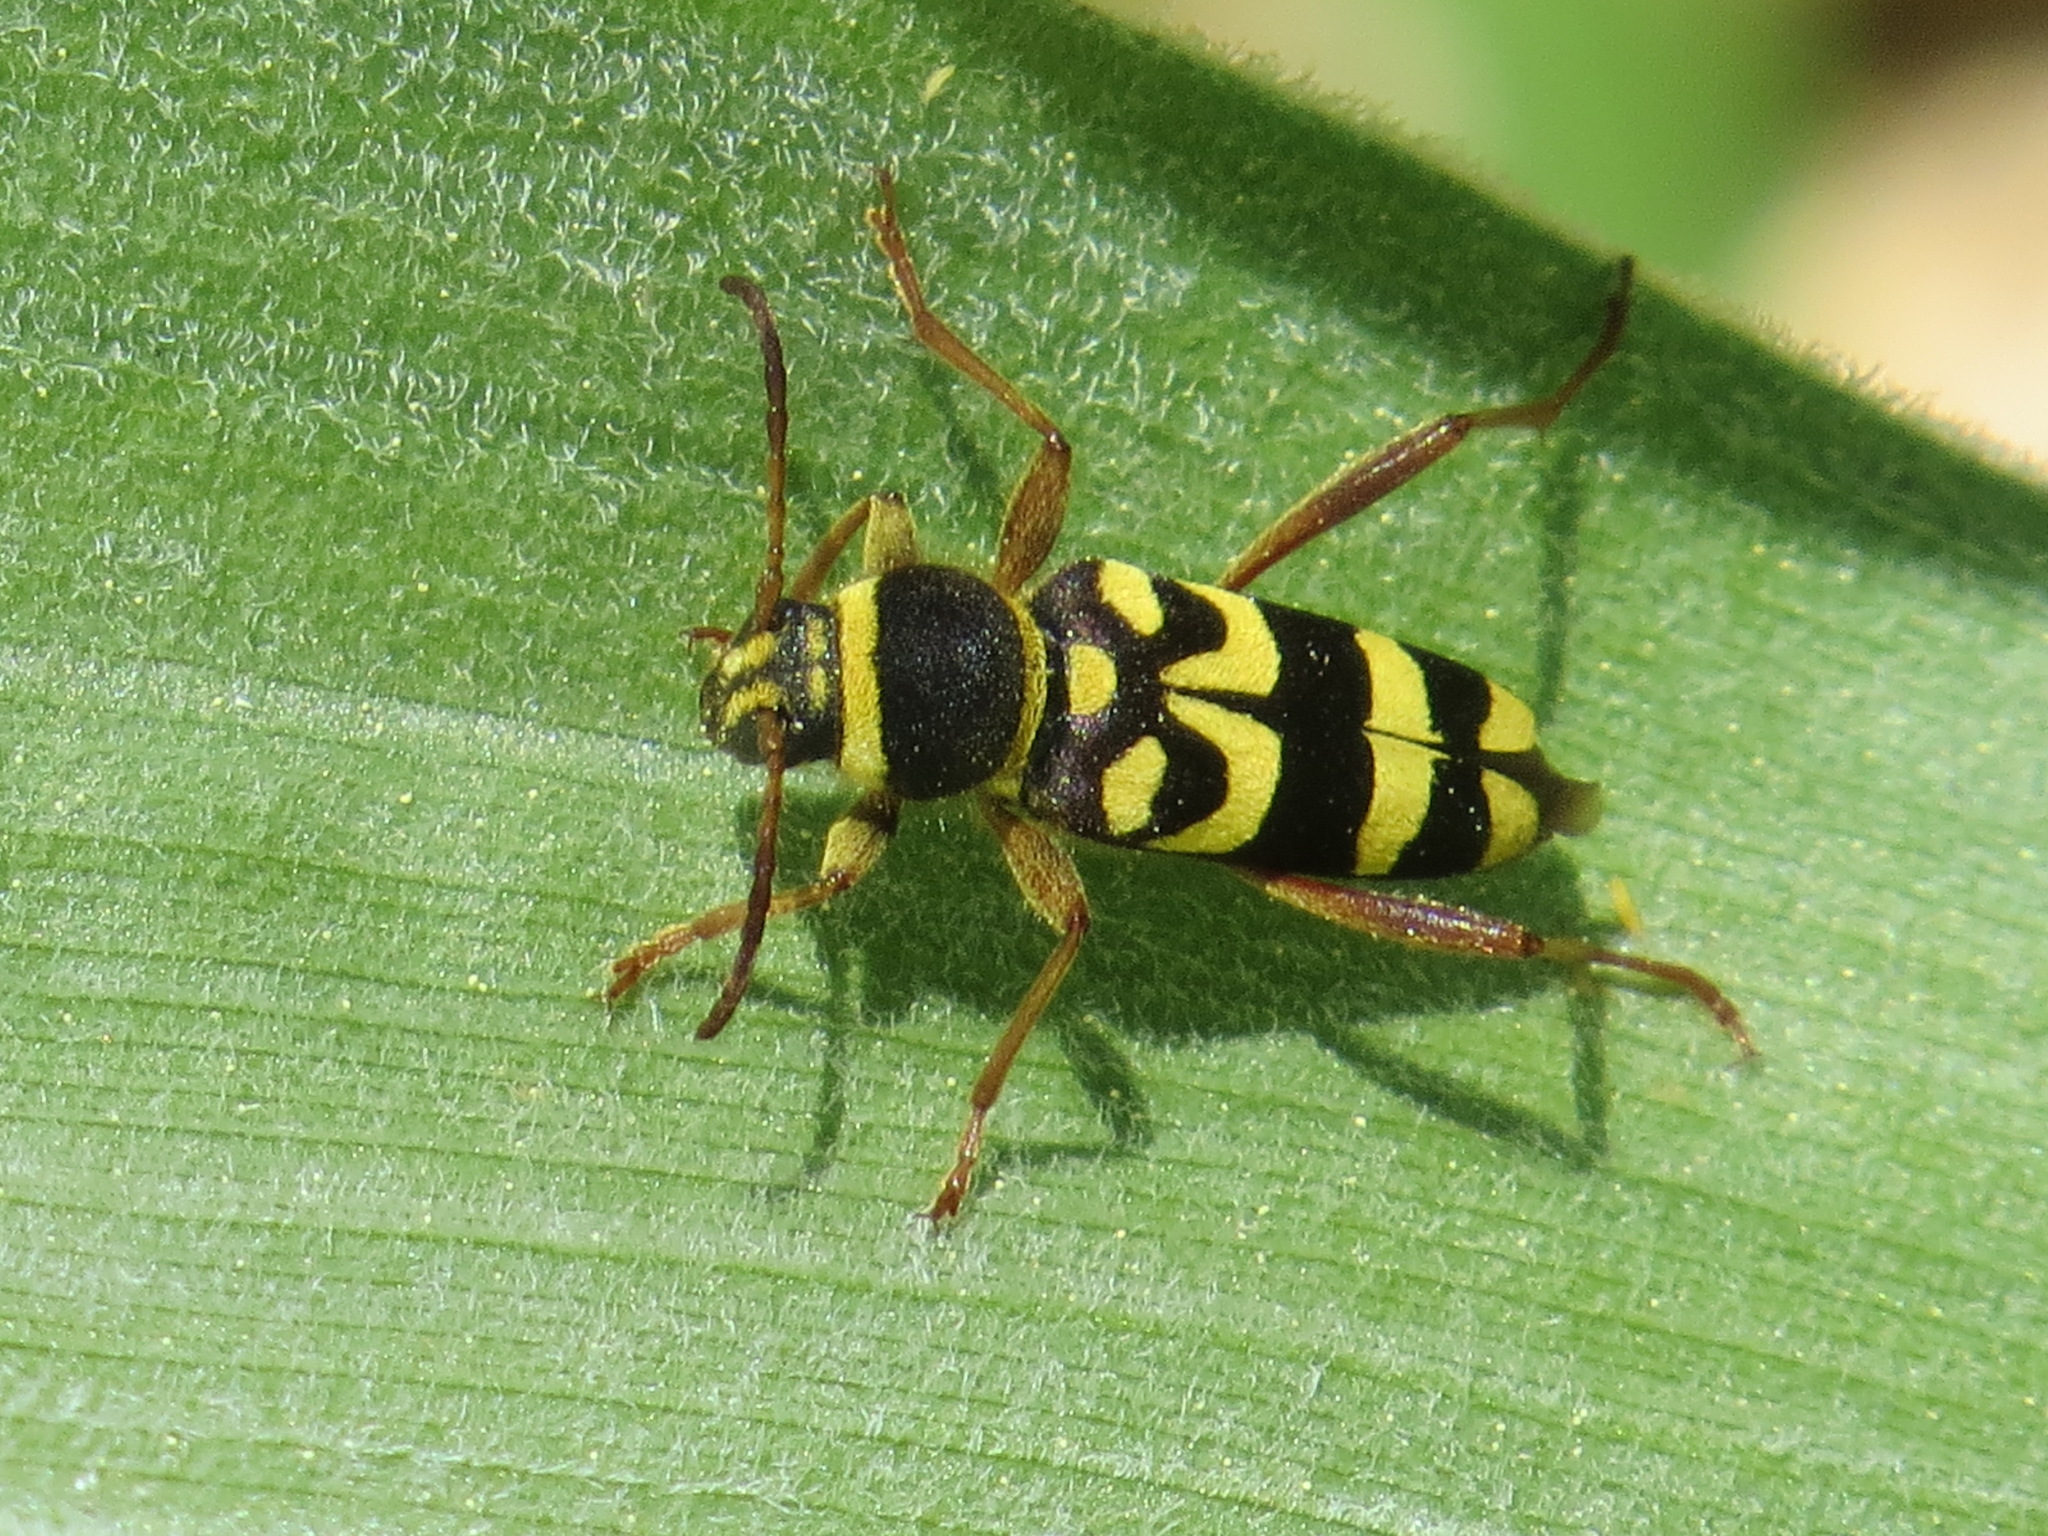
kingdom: Animalia
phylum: Arthropoda
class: Insecta
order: Coleoptera
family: Cerambycidae
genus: Clytus
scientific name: Clytus planifrons
